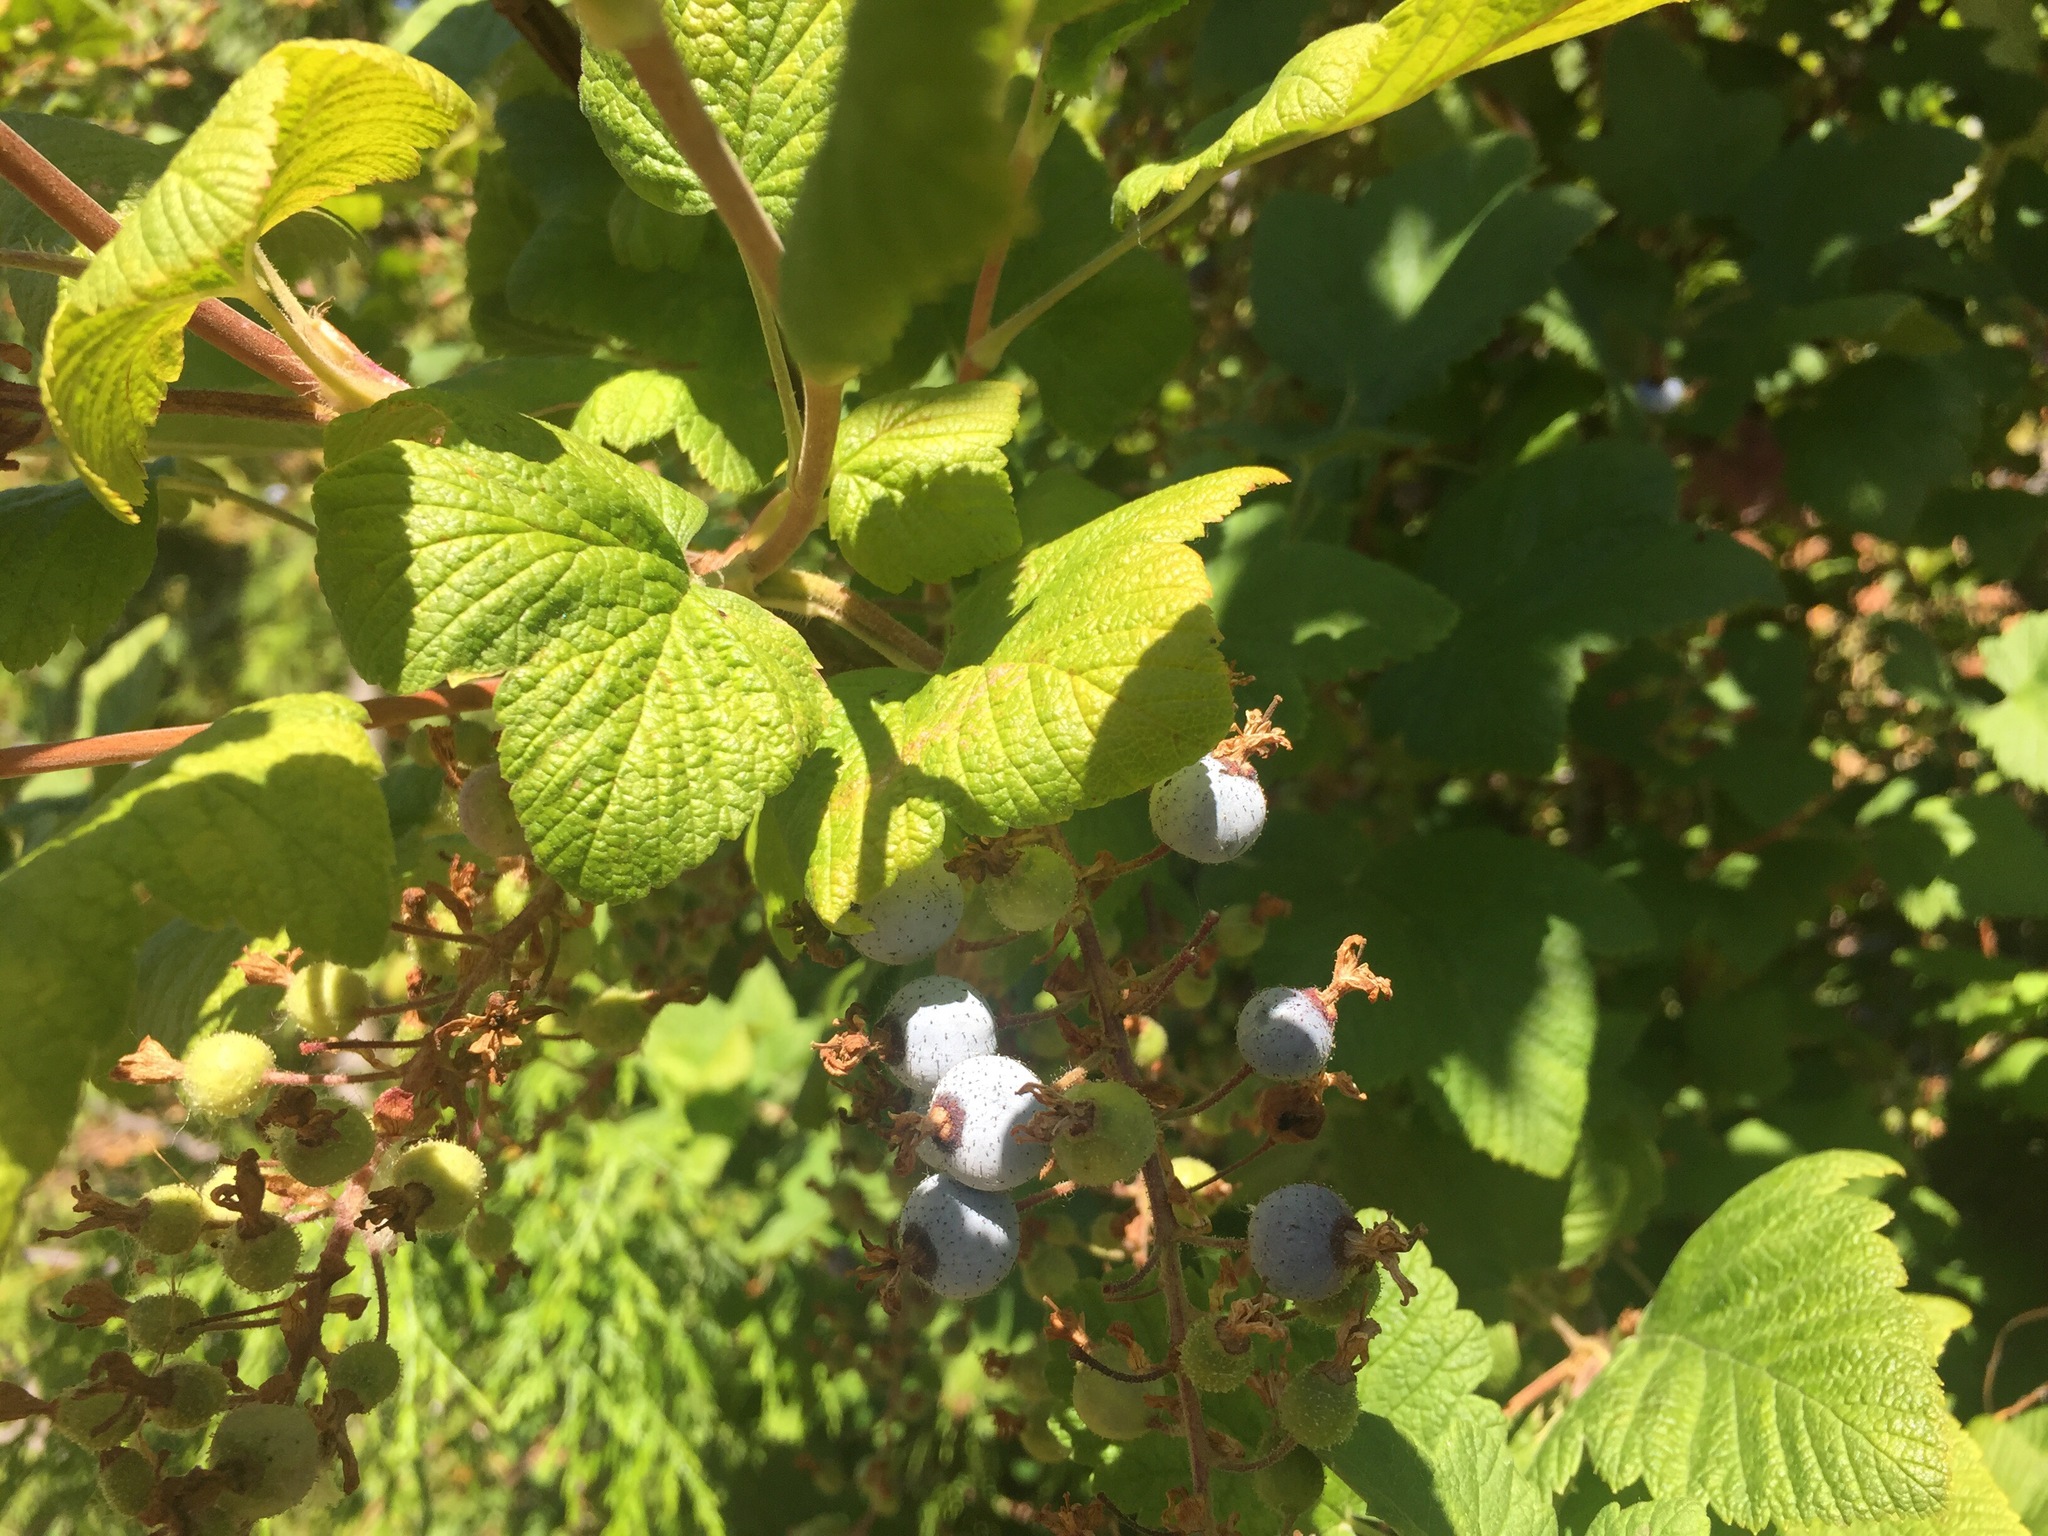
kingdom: Plantae
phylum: Tracheophyta
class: Magnoliopsida
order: Saxifragales
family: Grossulariaceae
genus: Ribes
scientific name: Ribes sanguineum
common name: Flowering currant
